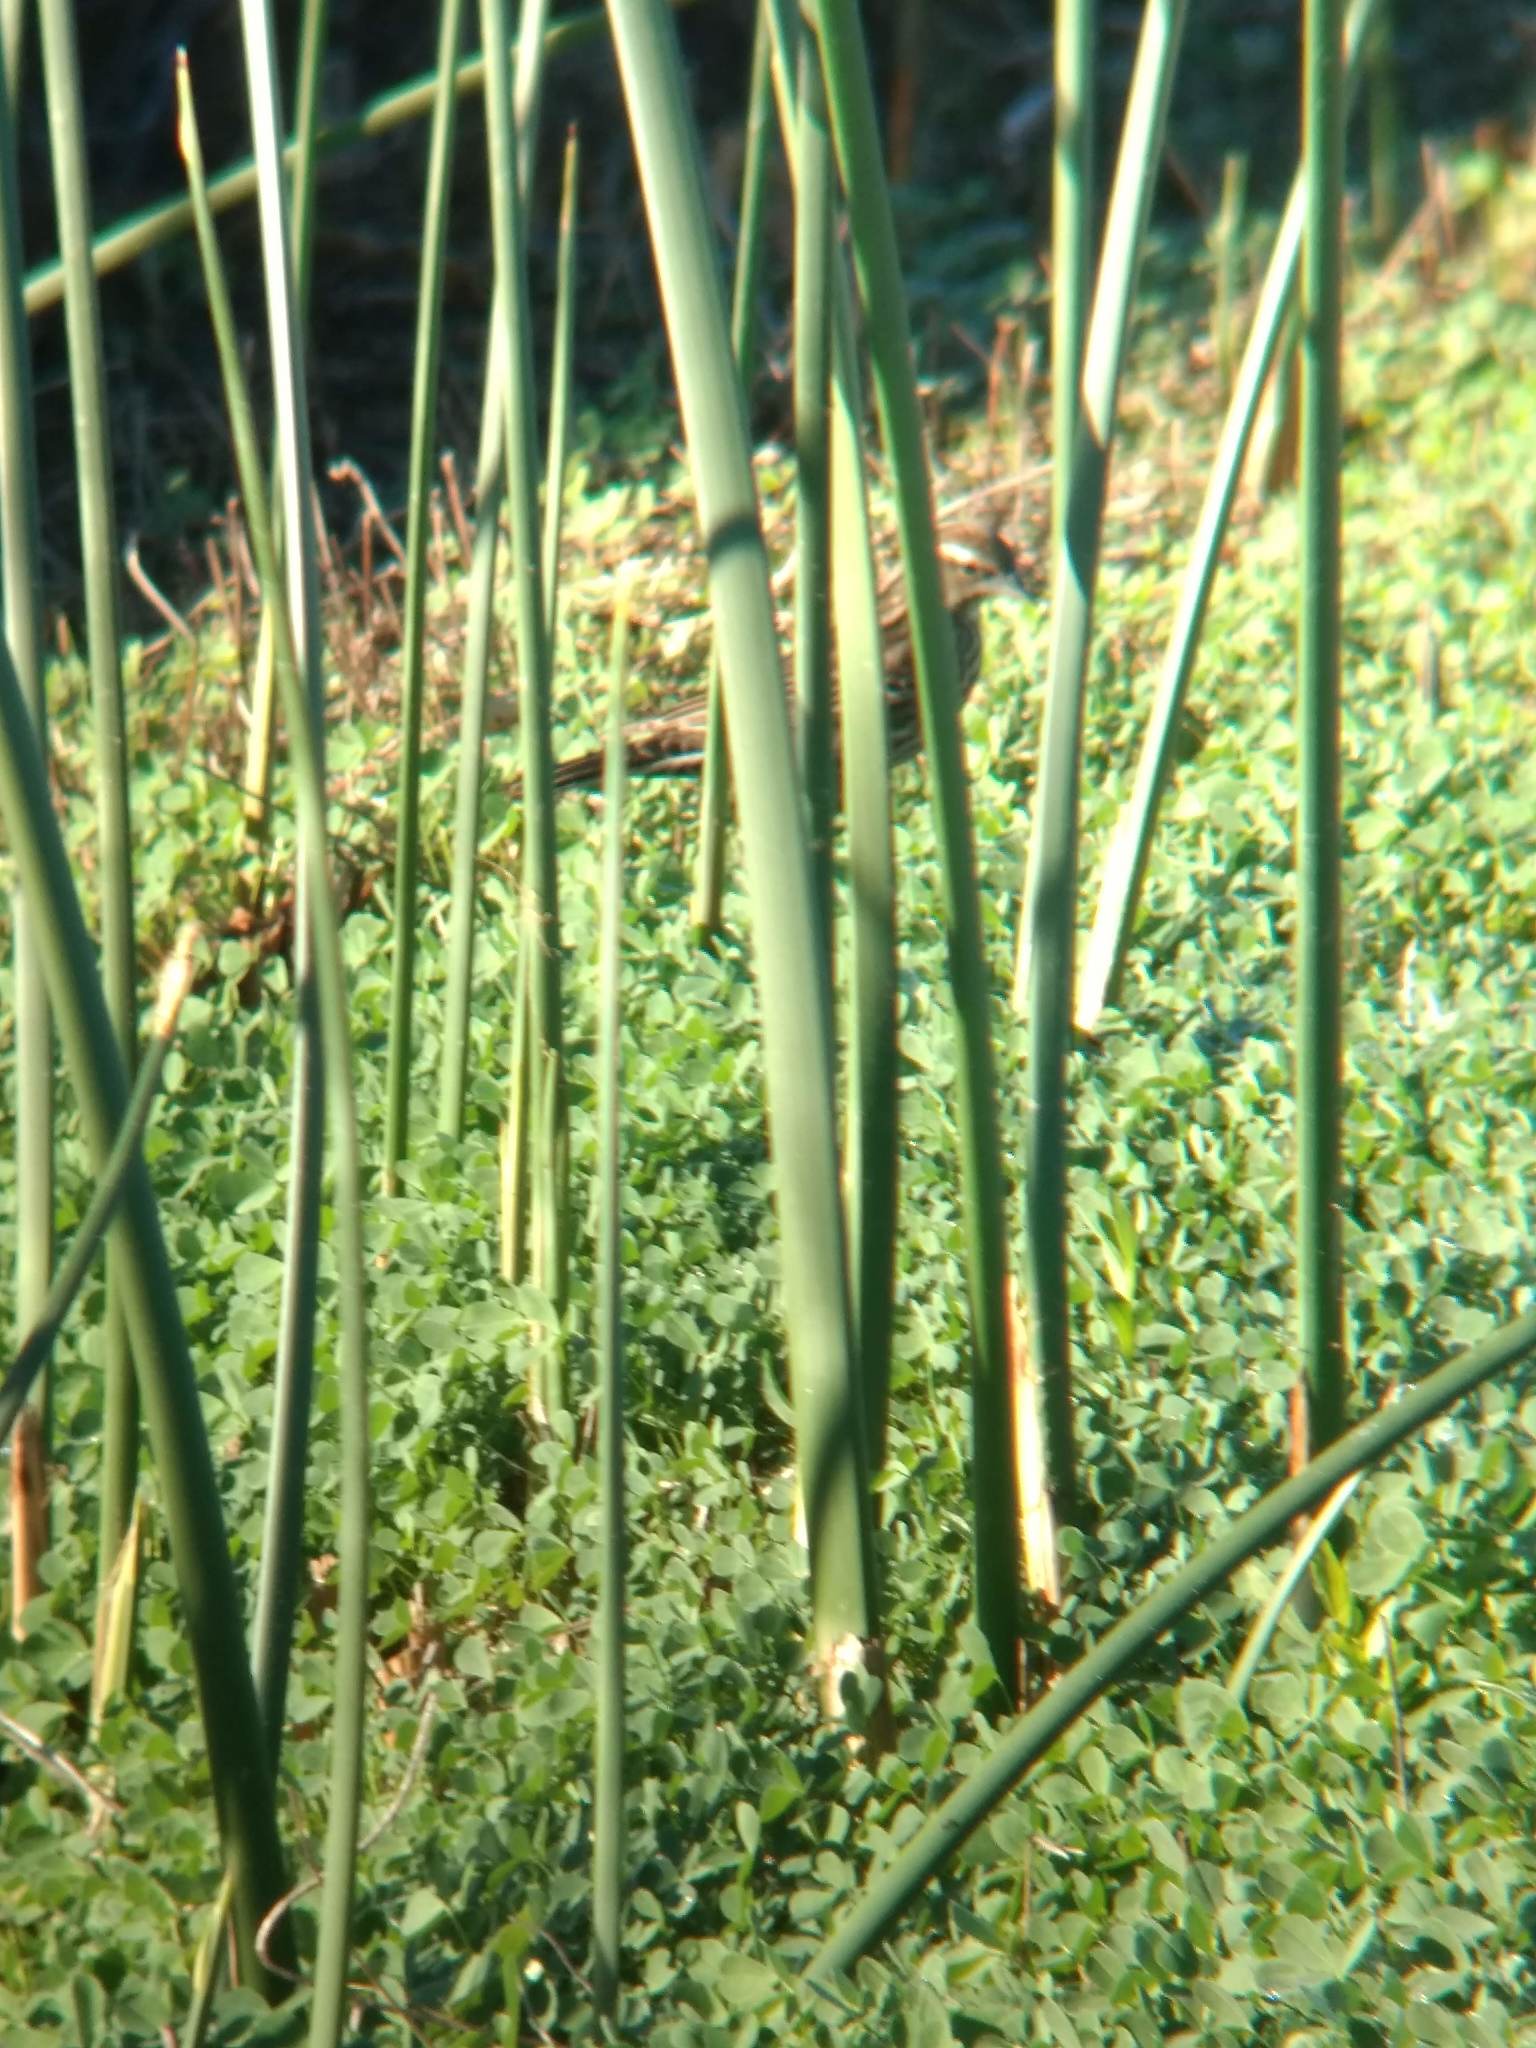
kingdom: Animalia
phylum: Chordata
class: Aves
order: Passeriformes
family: Icteridae
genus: Agelaius
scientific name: Agelaius phoeniceus
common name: Red-winged blackbird
